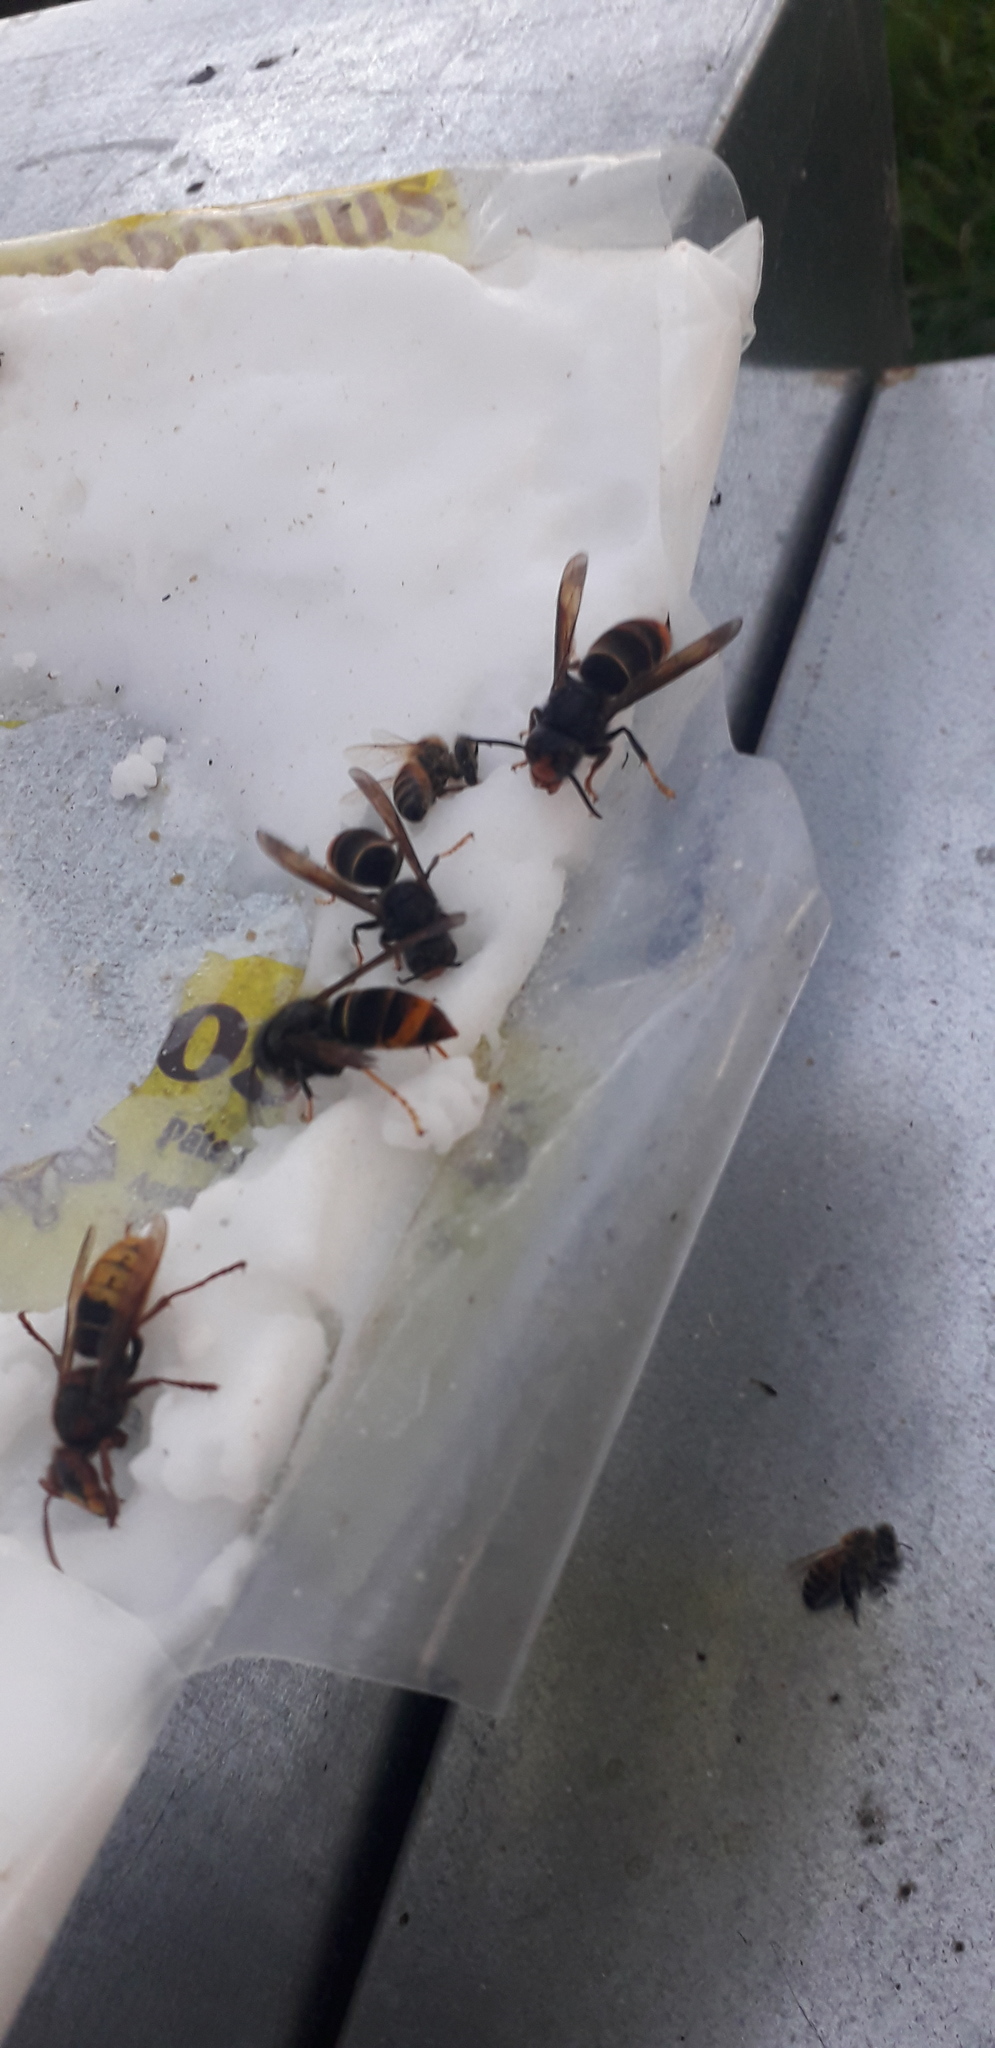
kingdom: Animalia
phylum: Arthropoda
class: Insecta
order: Hymenoptera
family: Vespidae
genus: Vespa
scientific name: Vespa velutina
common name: Asian hornet
